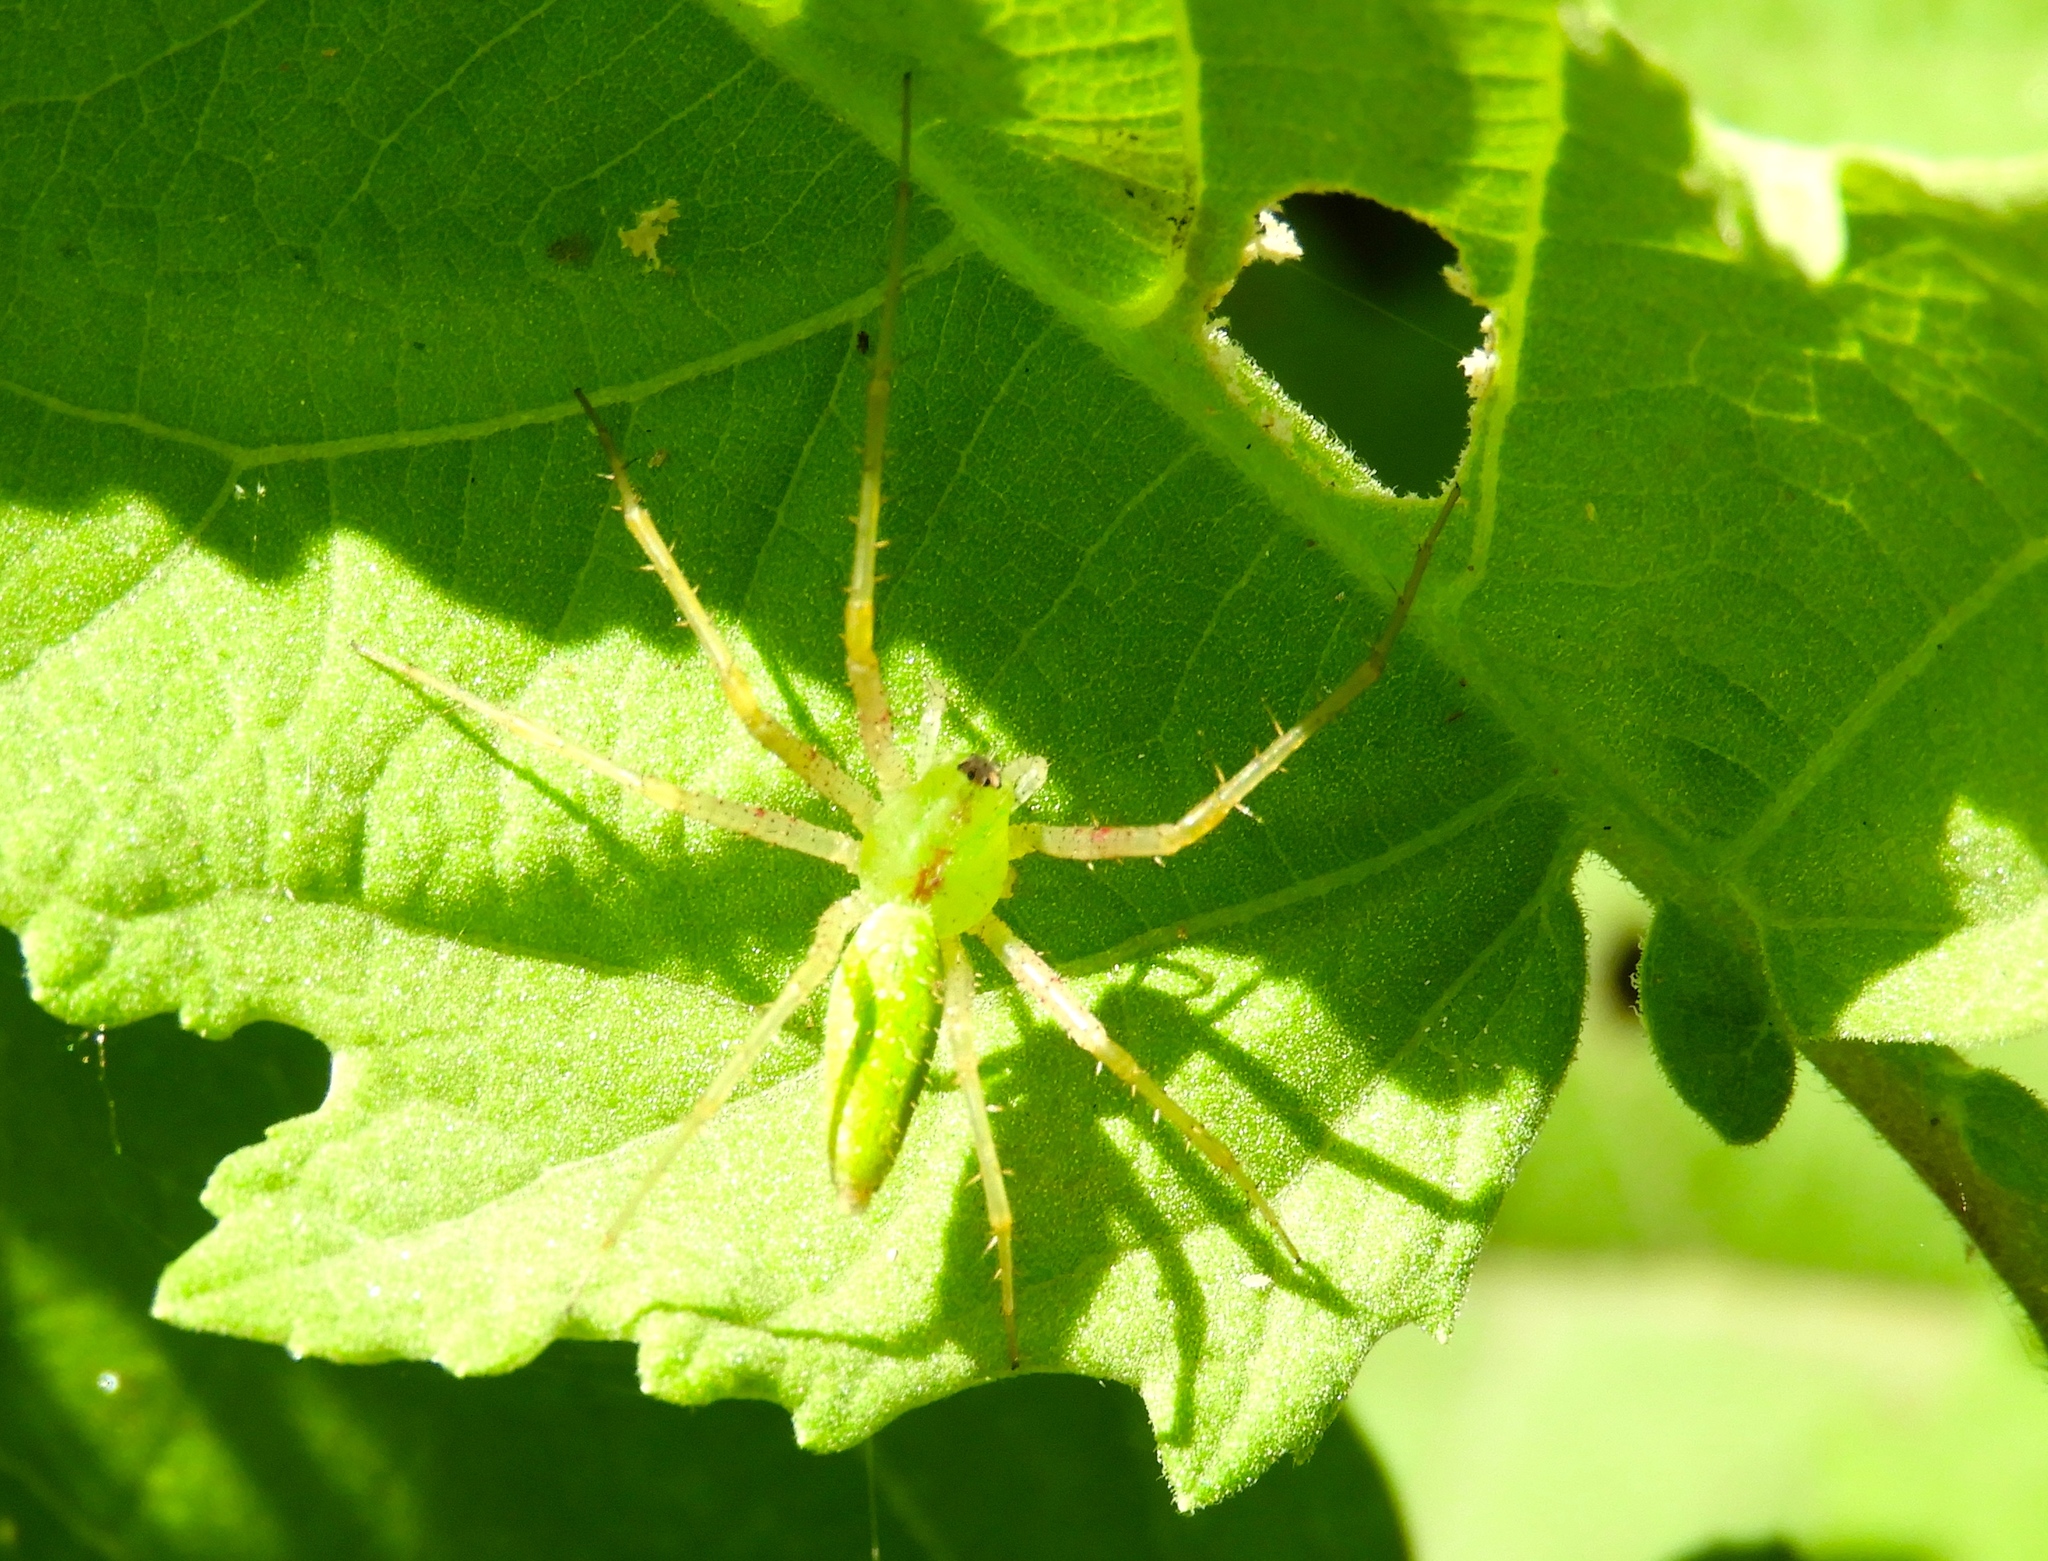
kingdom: Animalia
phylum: Arthropoda
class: Arachnida
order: Araneae
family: Oxyopidae
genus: Peucetia
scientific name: Peucetia longipalpis
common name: Lynx spiders
